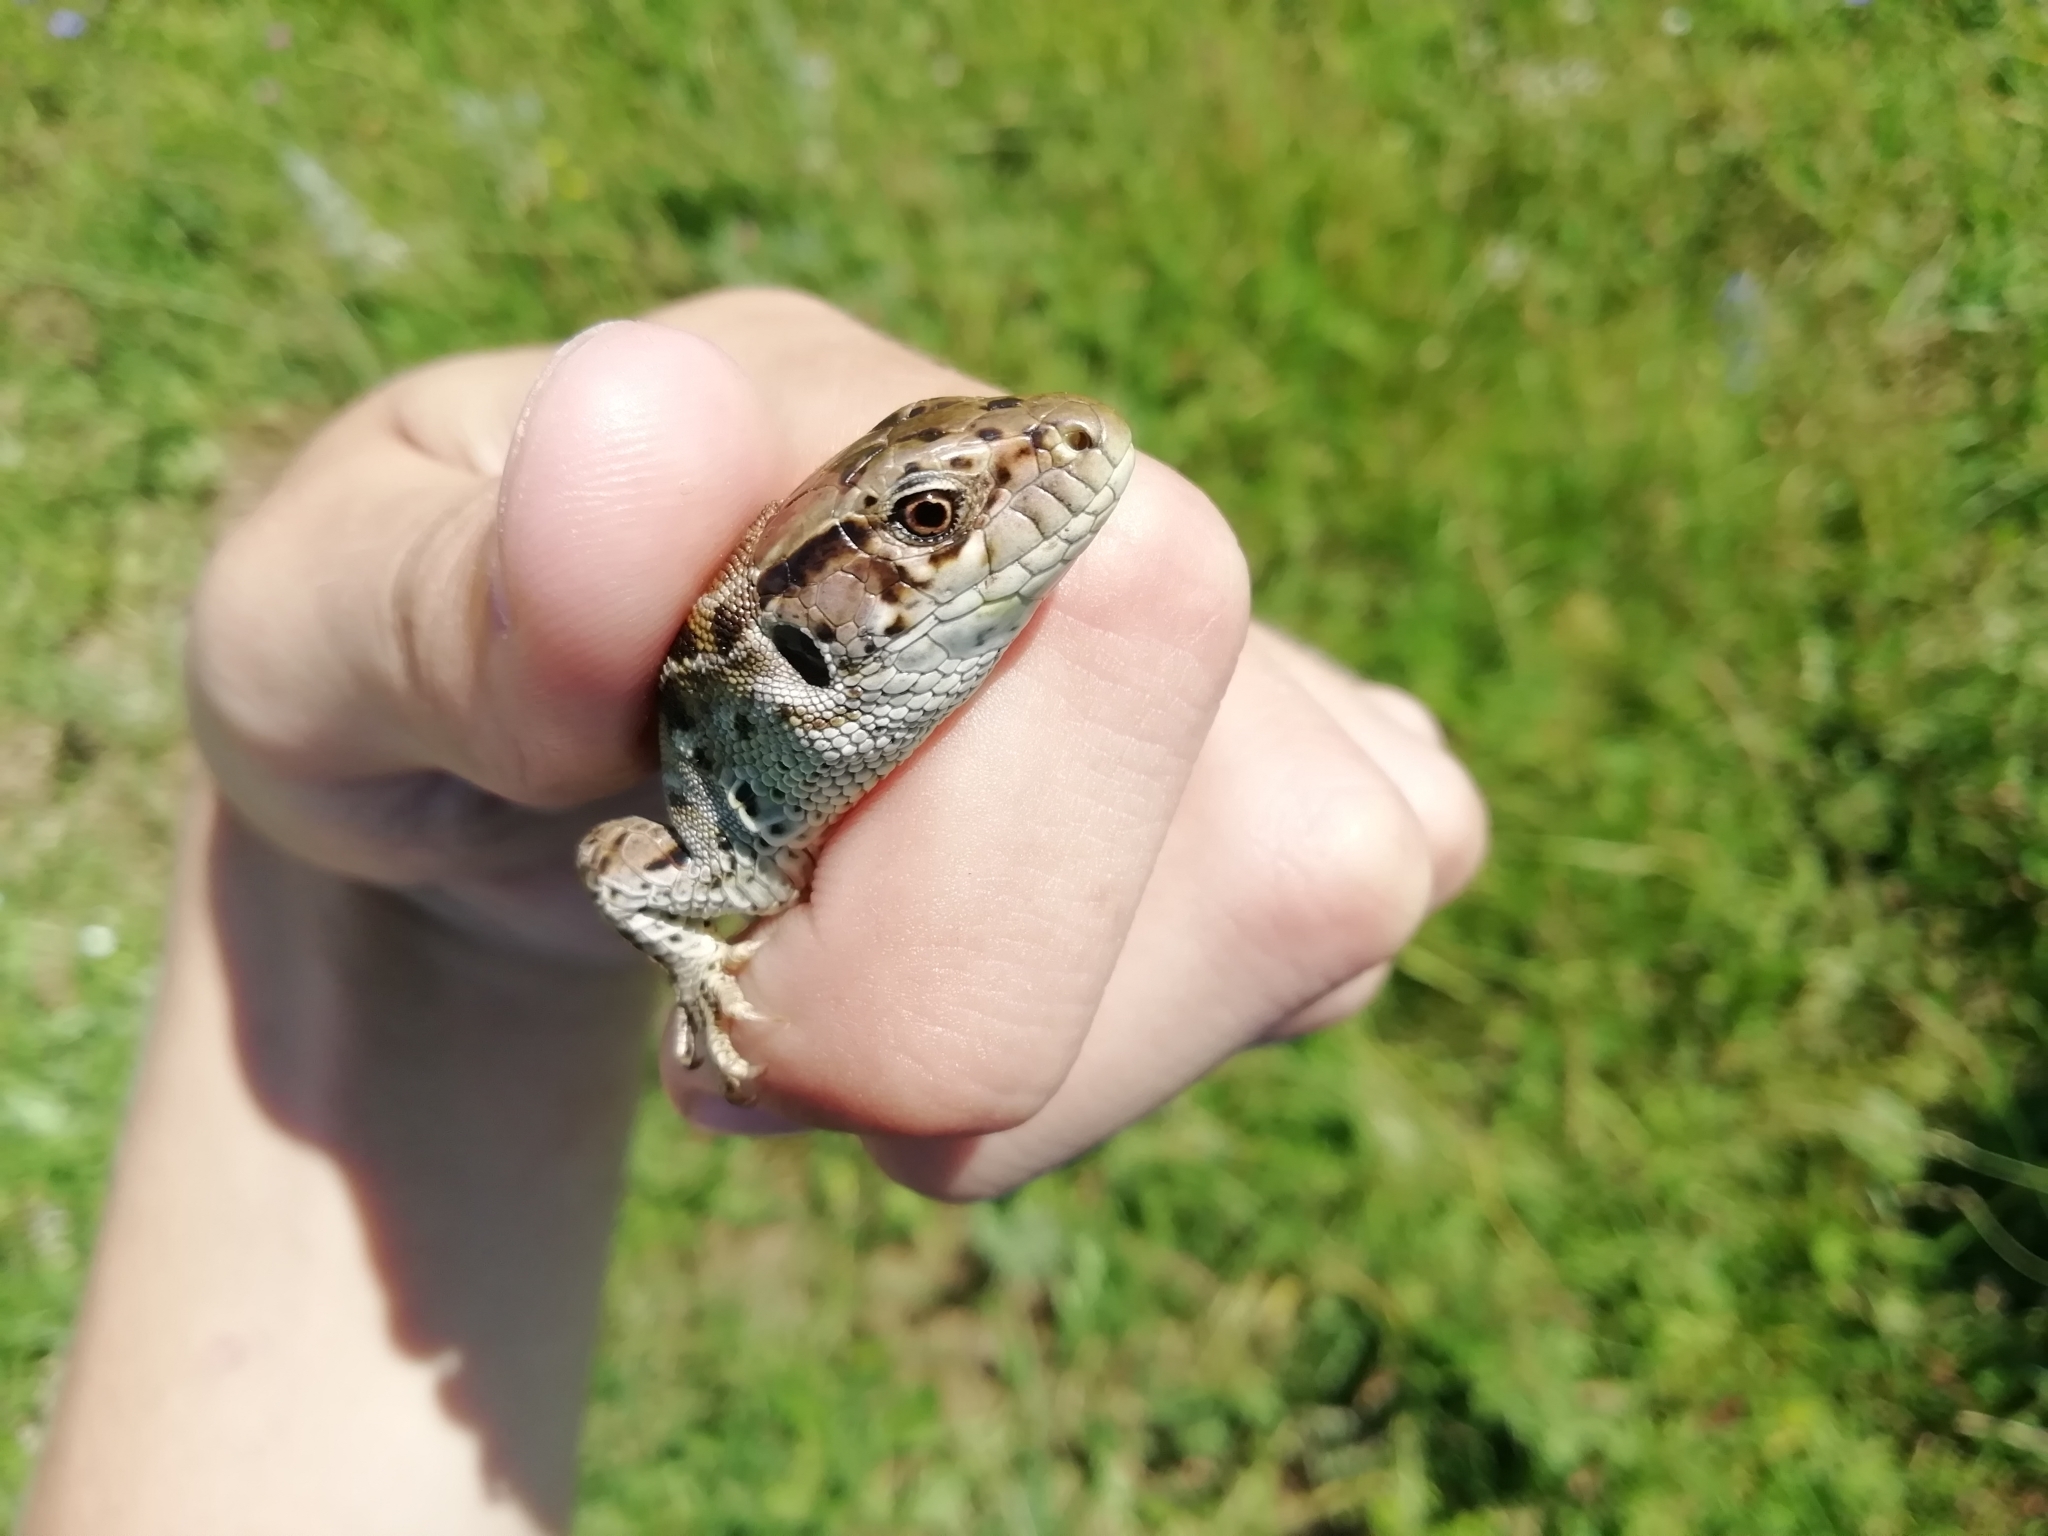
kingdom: Animalia
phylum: Chordata
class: Squamata
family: Lacertidae
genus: Lacerta
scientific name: Lacerta agilis
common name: Sand lizard
